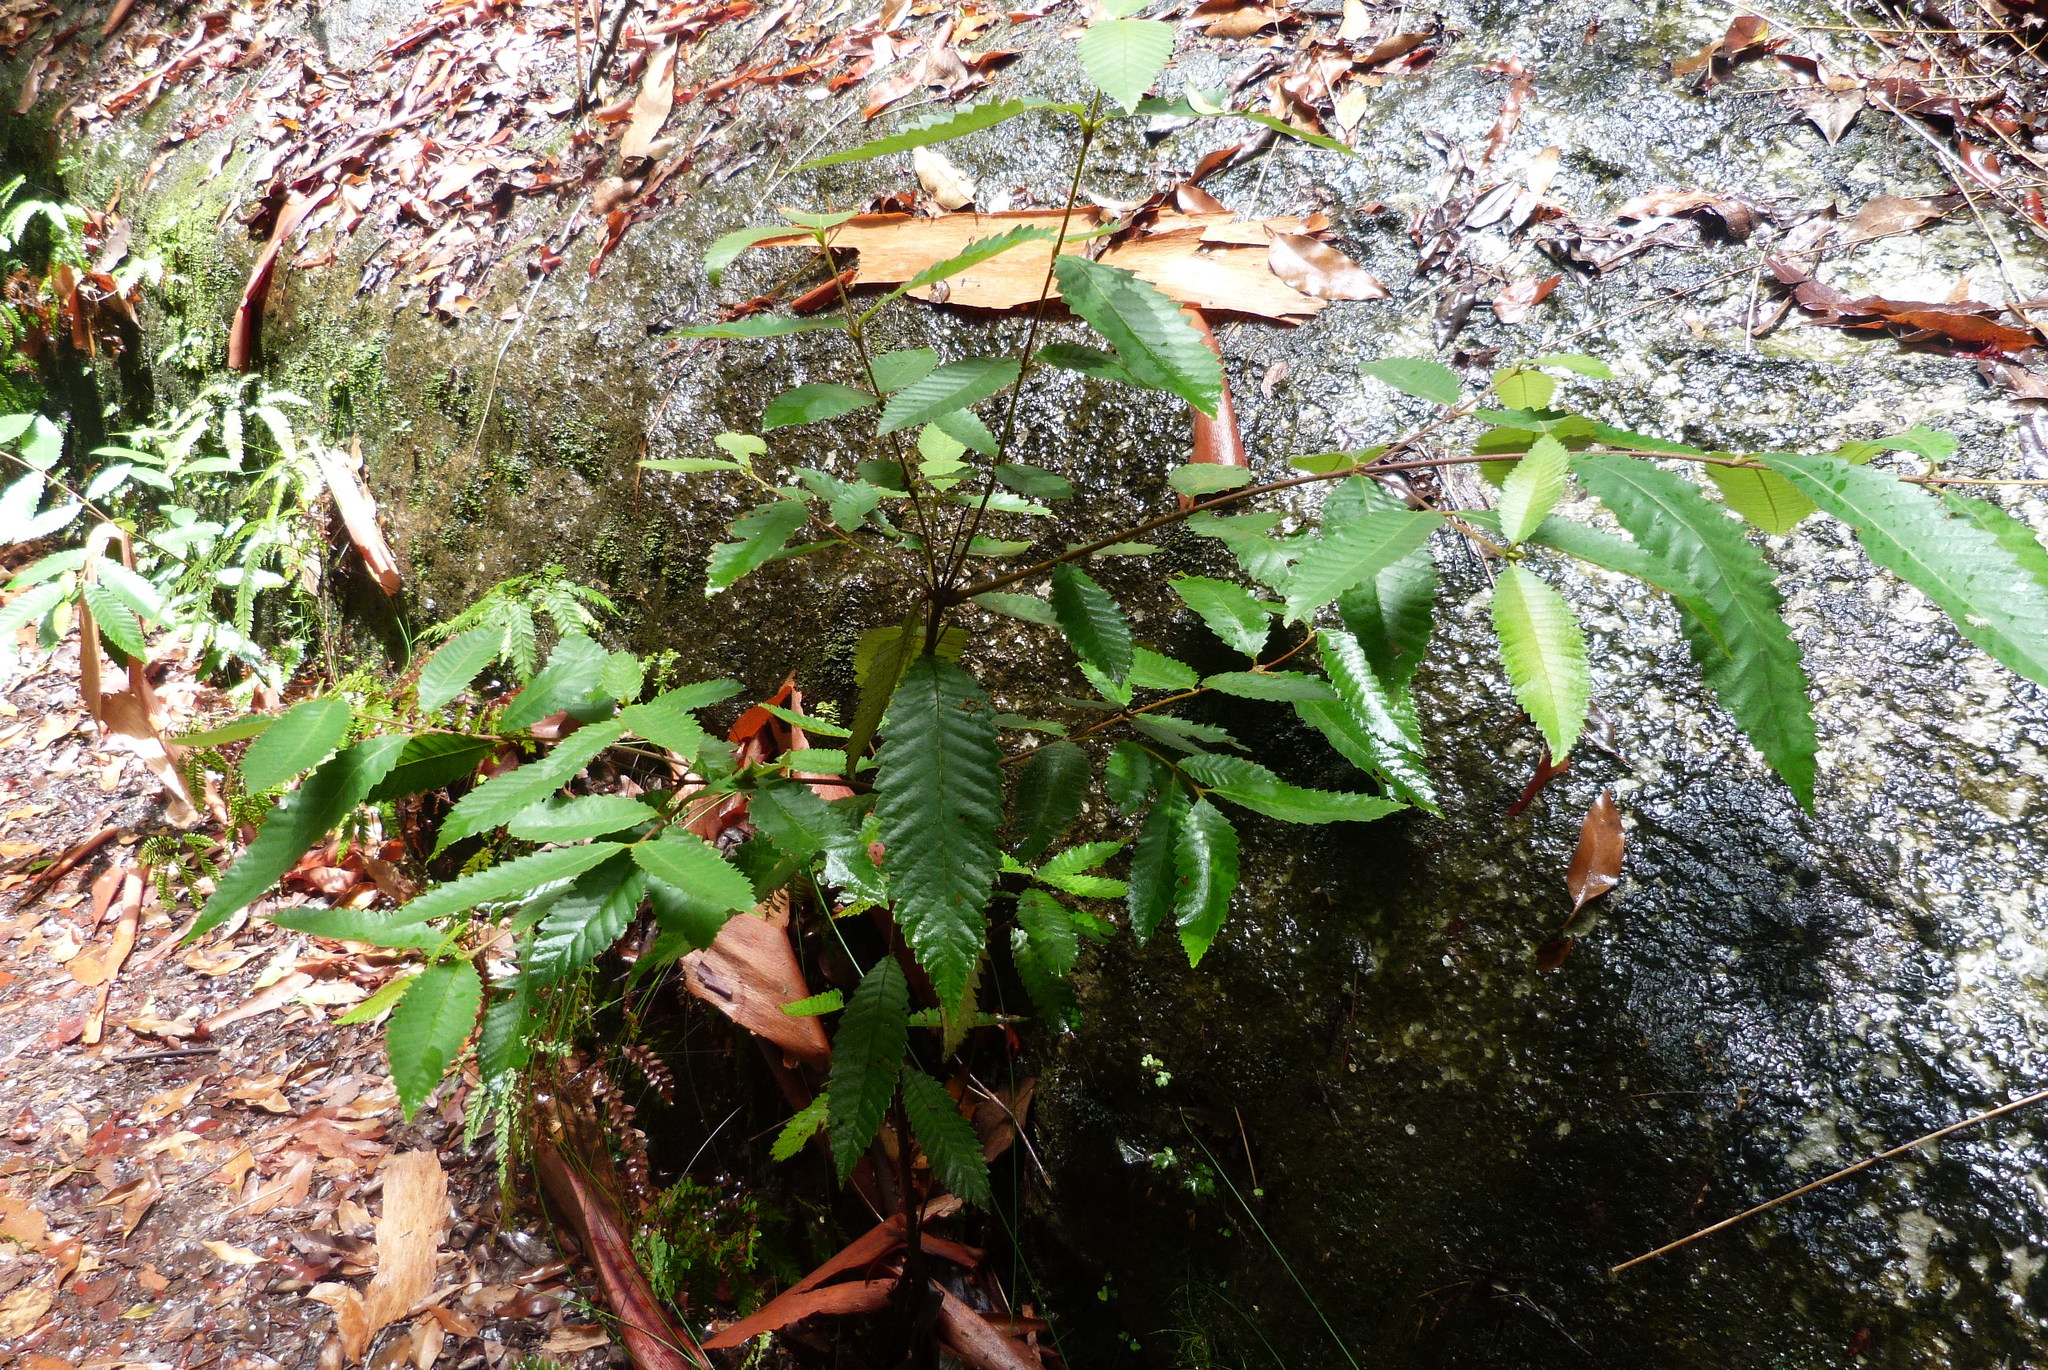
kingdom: Plantae
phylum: Tracheophyta
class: Magnoliopsida
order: Oxalidales
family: Cunoniaceae
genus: Callicoma
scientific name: Callicoma serratifolia
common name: Black wattle
